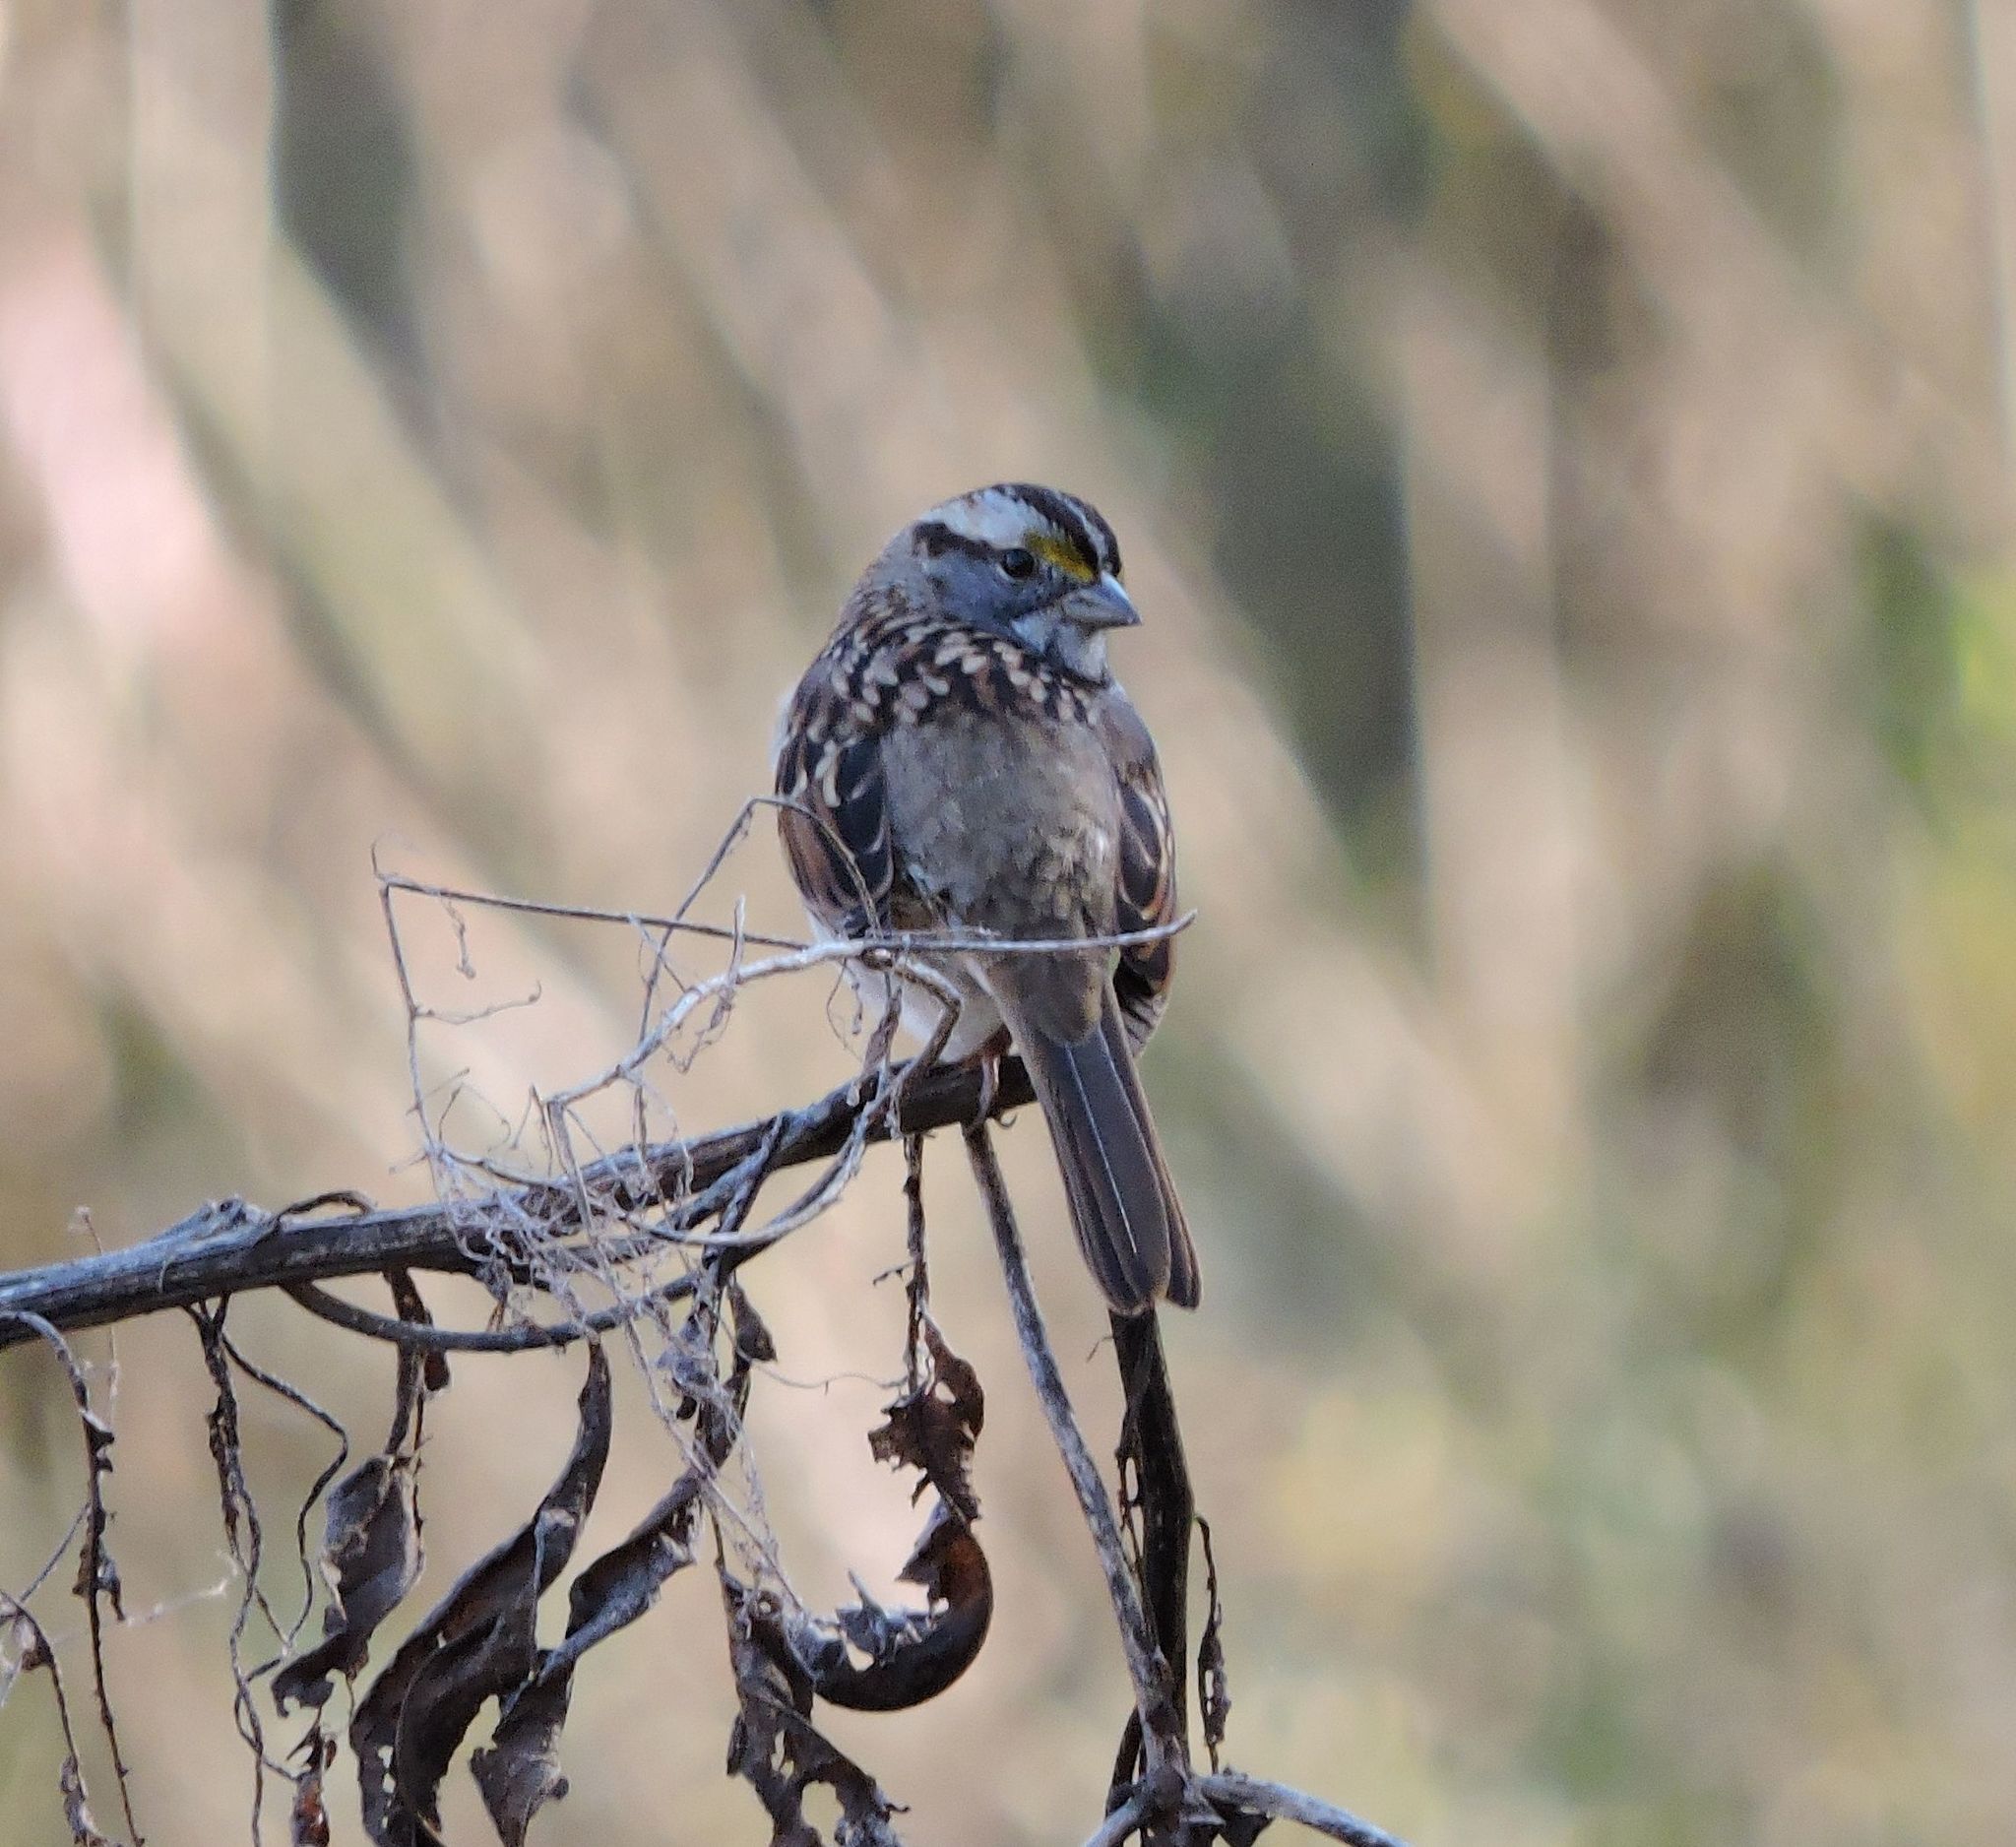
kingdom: Animalia
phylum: Chordata
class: Aves
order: Passeriformes
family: Passerellidae
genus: Zonotrichia
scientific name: Zonotrichia albicollis
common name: White-throated sparrow
